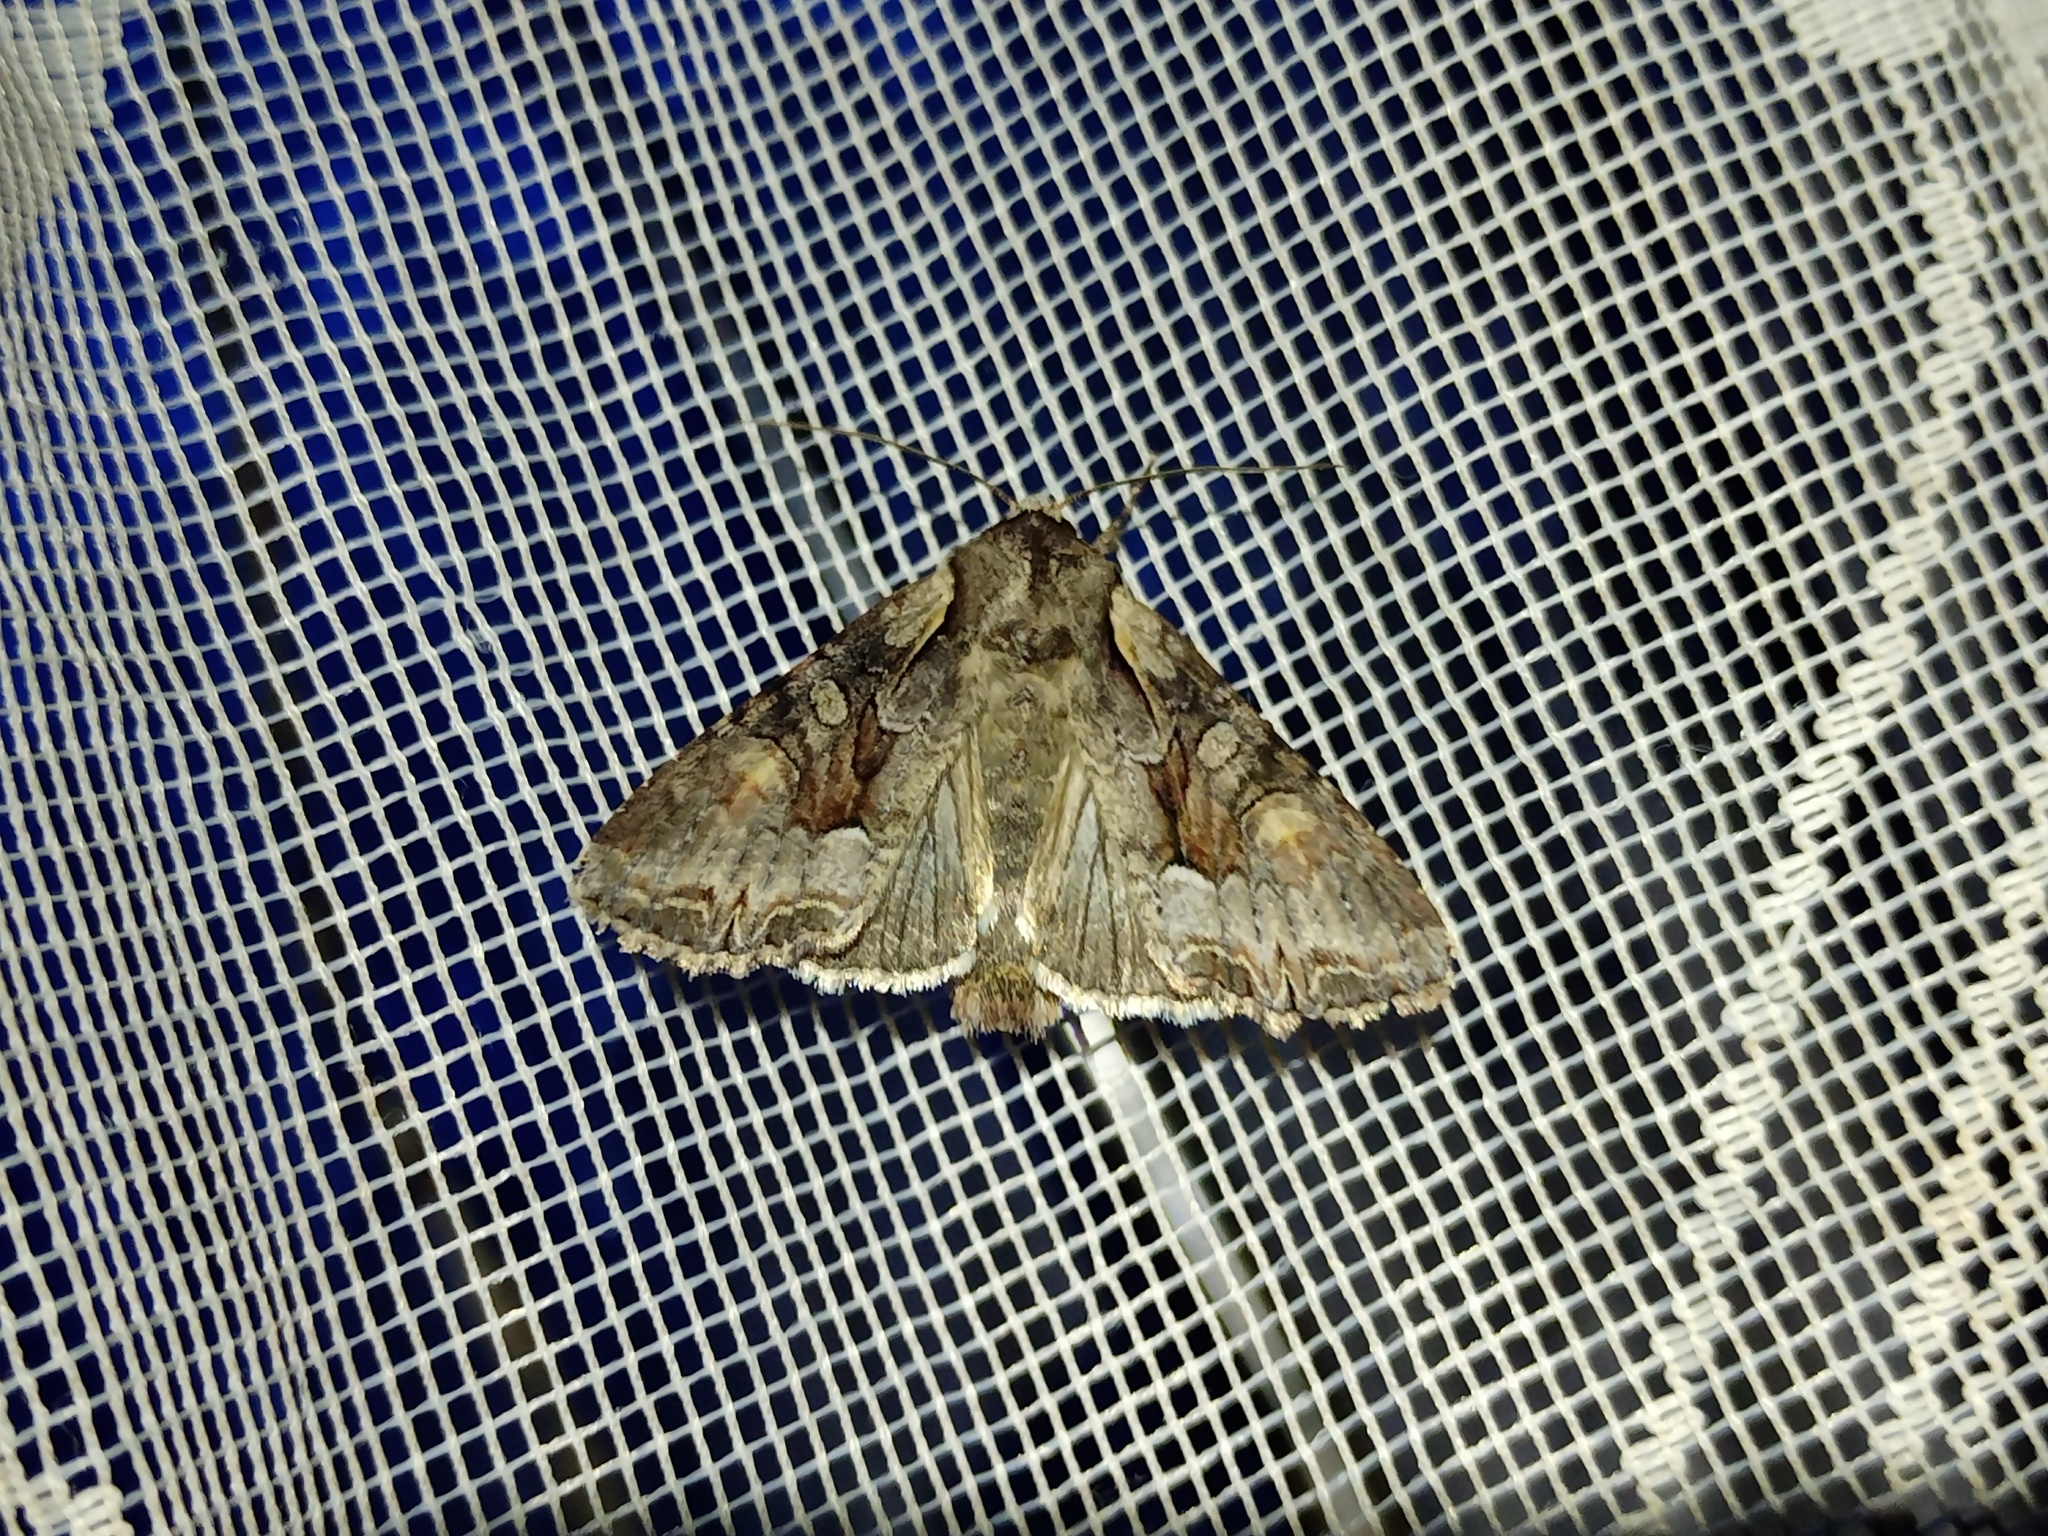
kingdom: Animalia
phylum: Arthropoda
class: Insecta
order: Lepidoptera
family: Noctuidae
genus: Lacanobia
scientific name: Lacanobia w-latinum
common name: Light brocade
